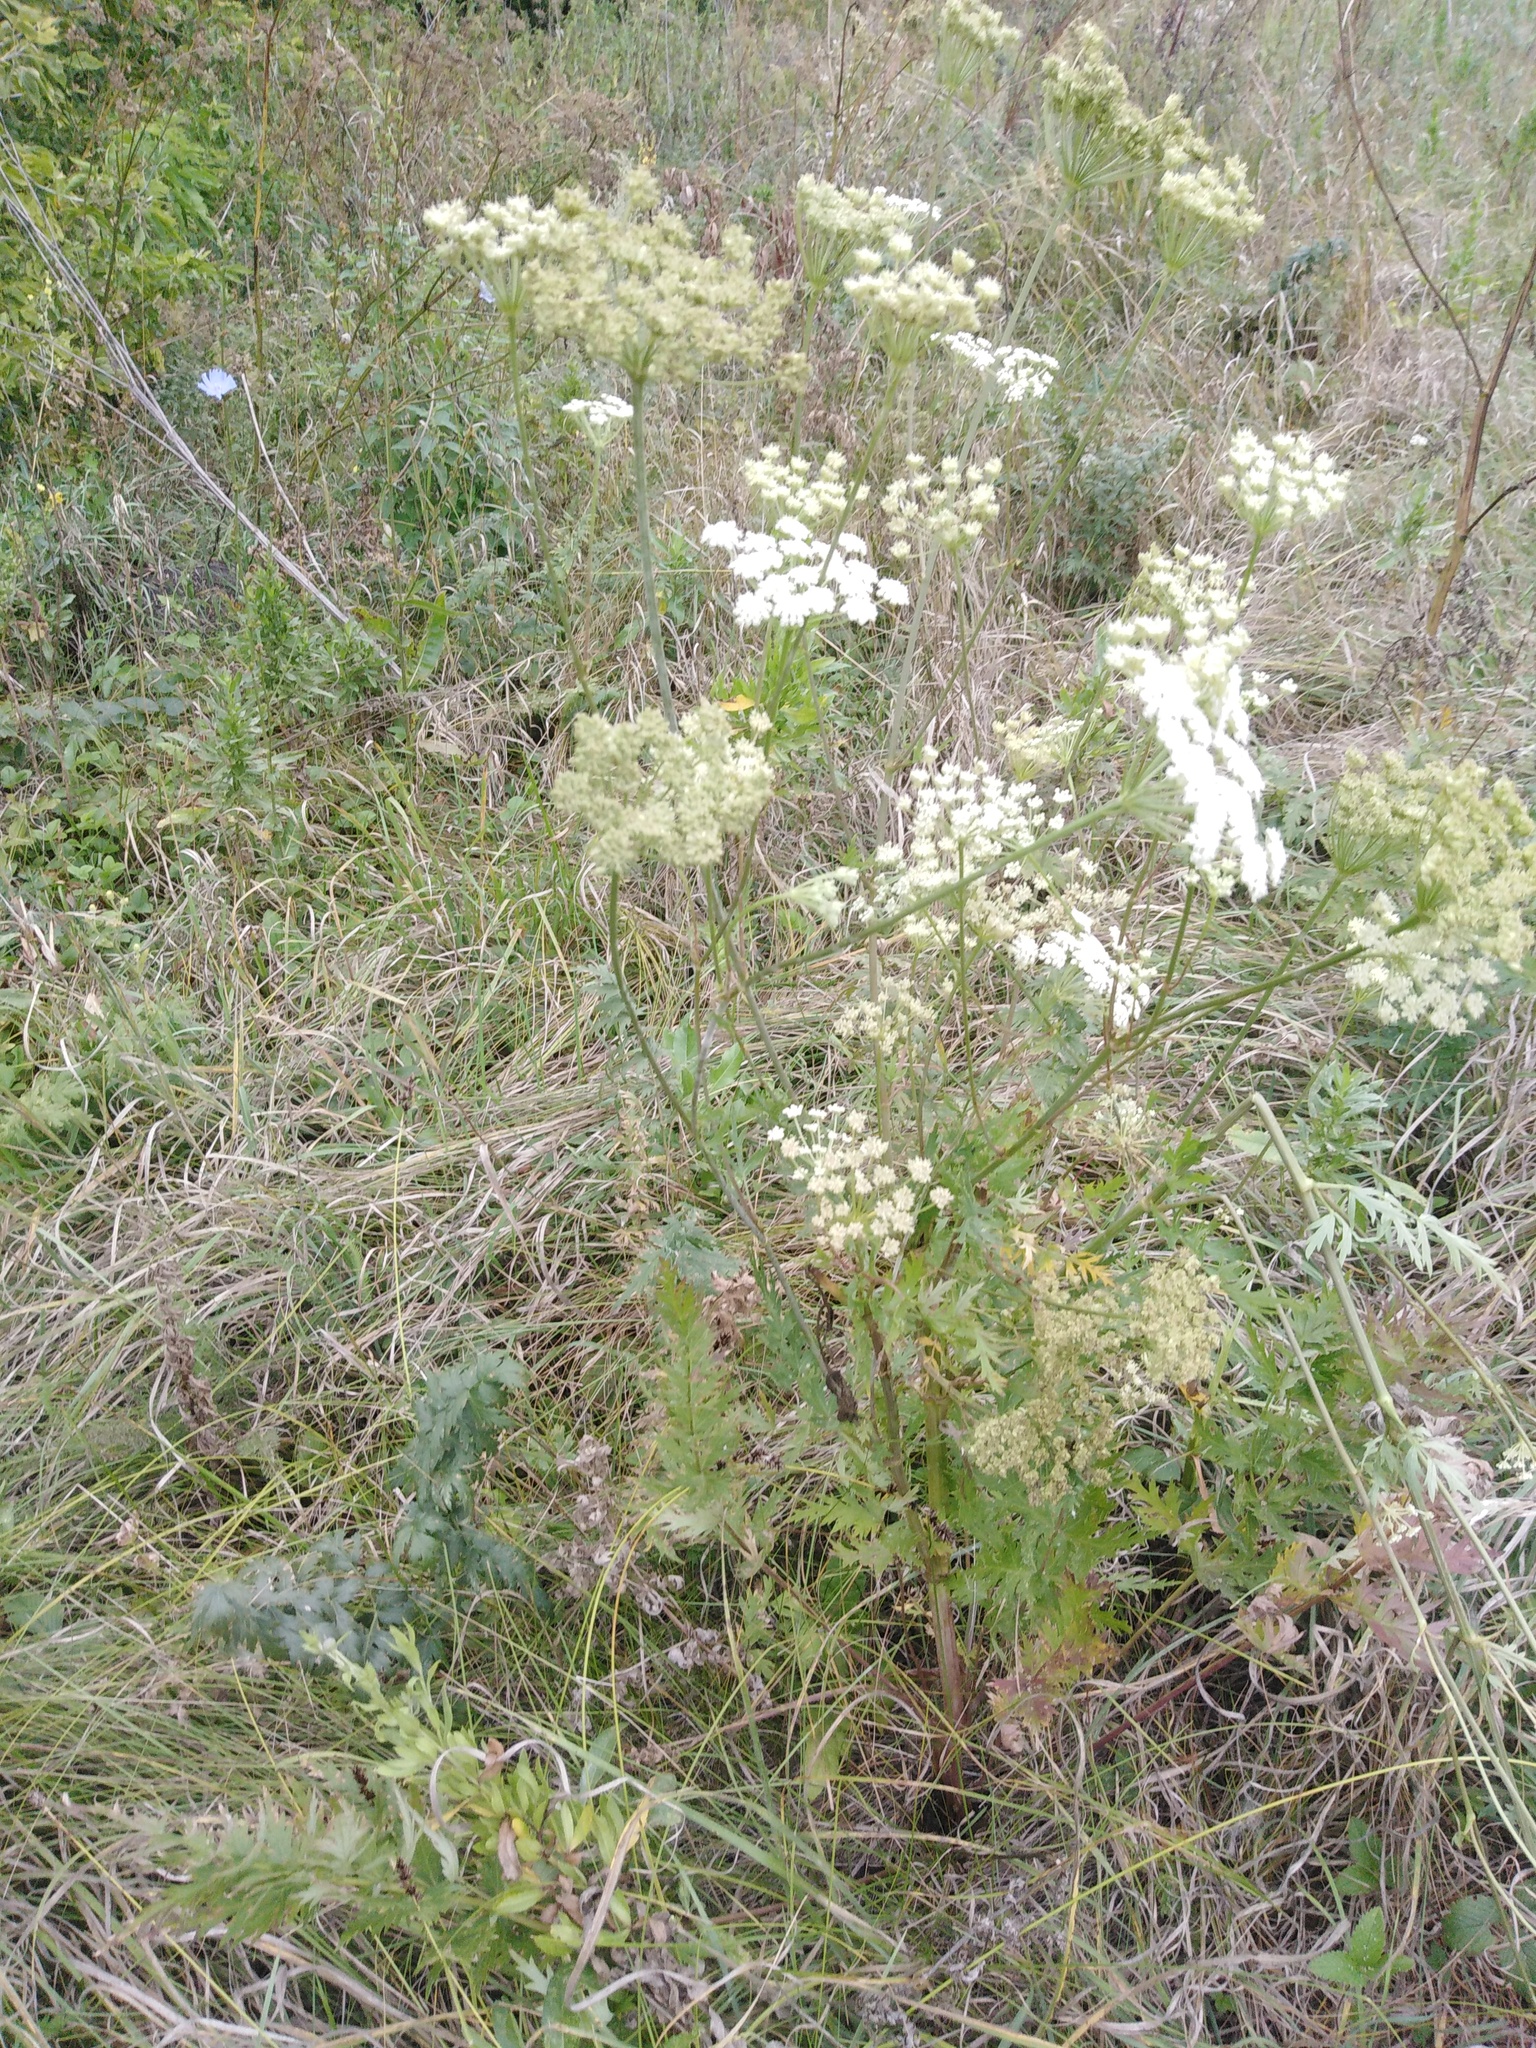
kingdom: Plantae
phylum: Tracheophyta
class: Magnoliopsida
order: Apiales
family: Apiaceae
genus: Seseli
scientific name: Seseli libanotis
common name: Mooncarrot
